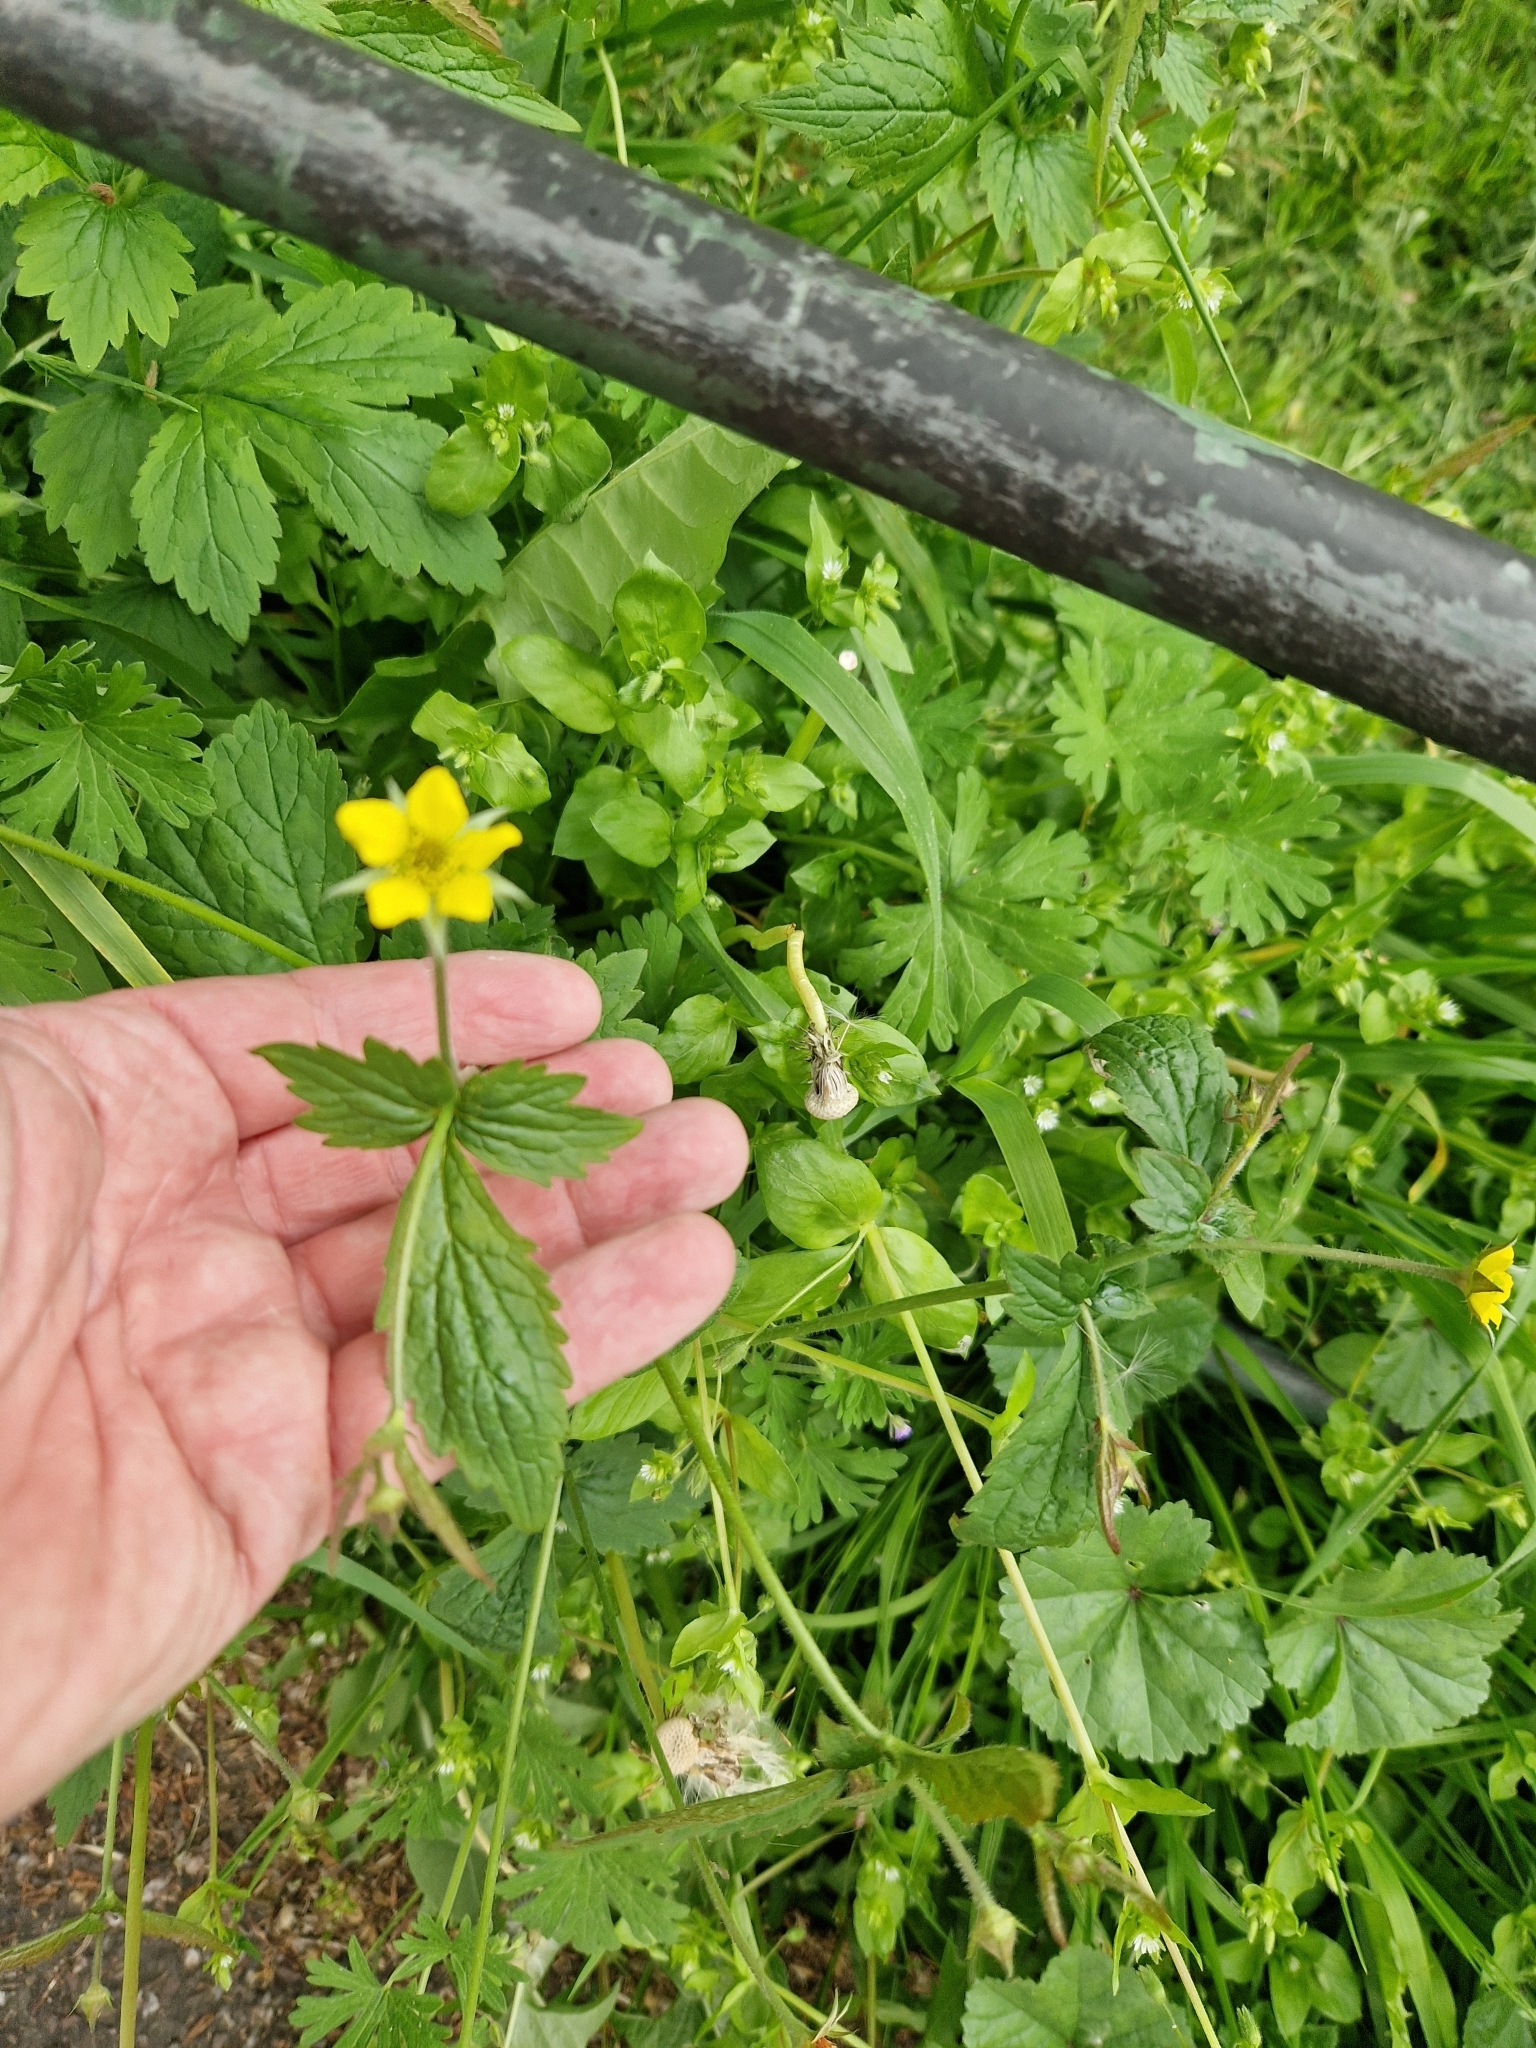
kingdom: Plantae
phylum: Tracheophyta
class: Magnoliopsida
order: Rosales
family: Rosaceae
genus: Geum
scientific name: Geum urbanum
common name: Wood avens
